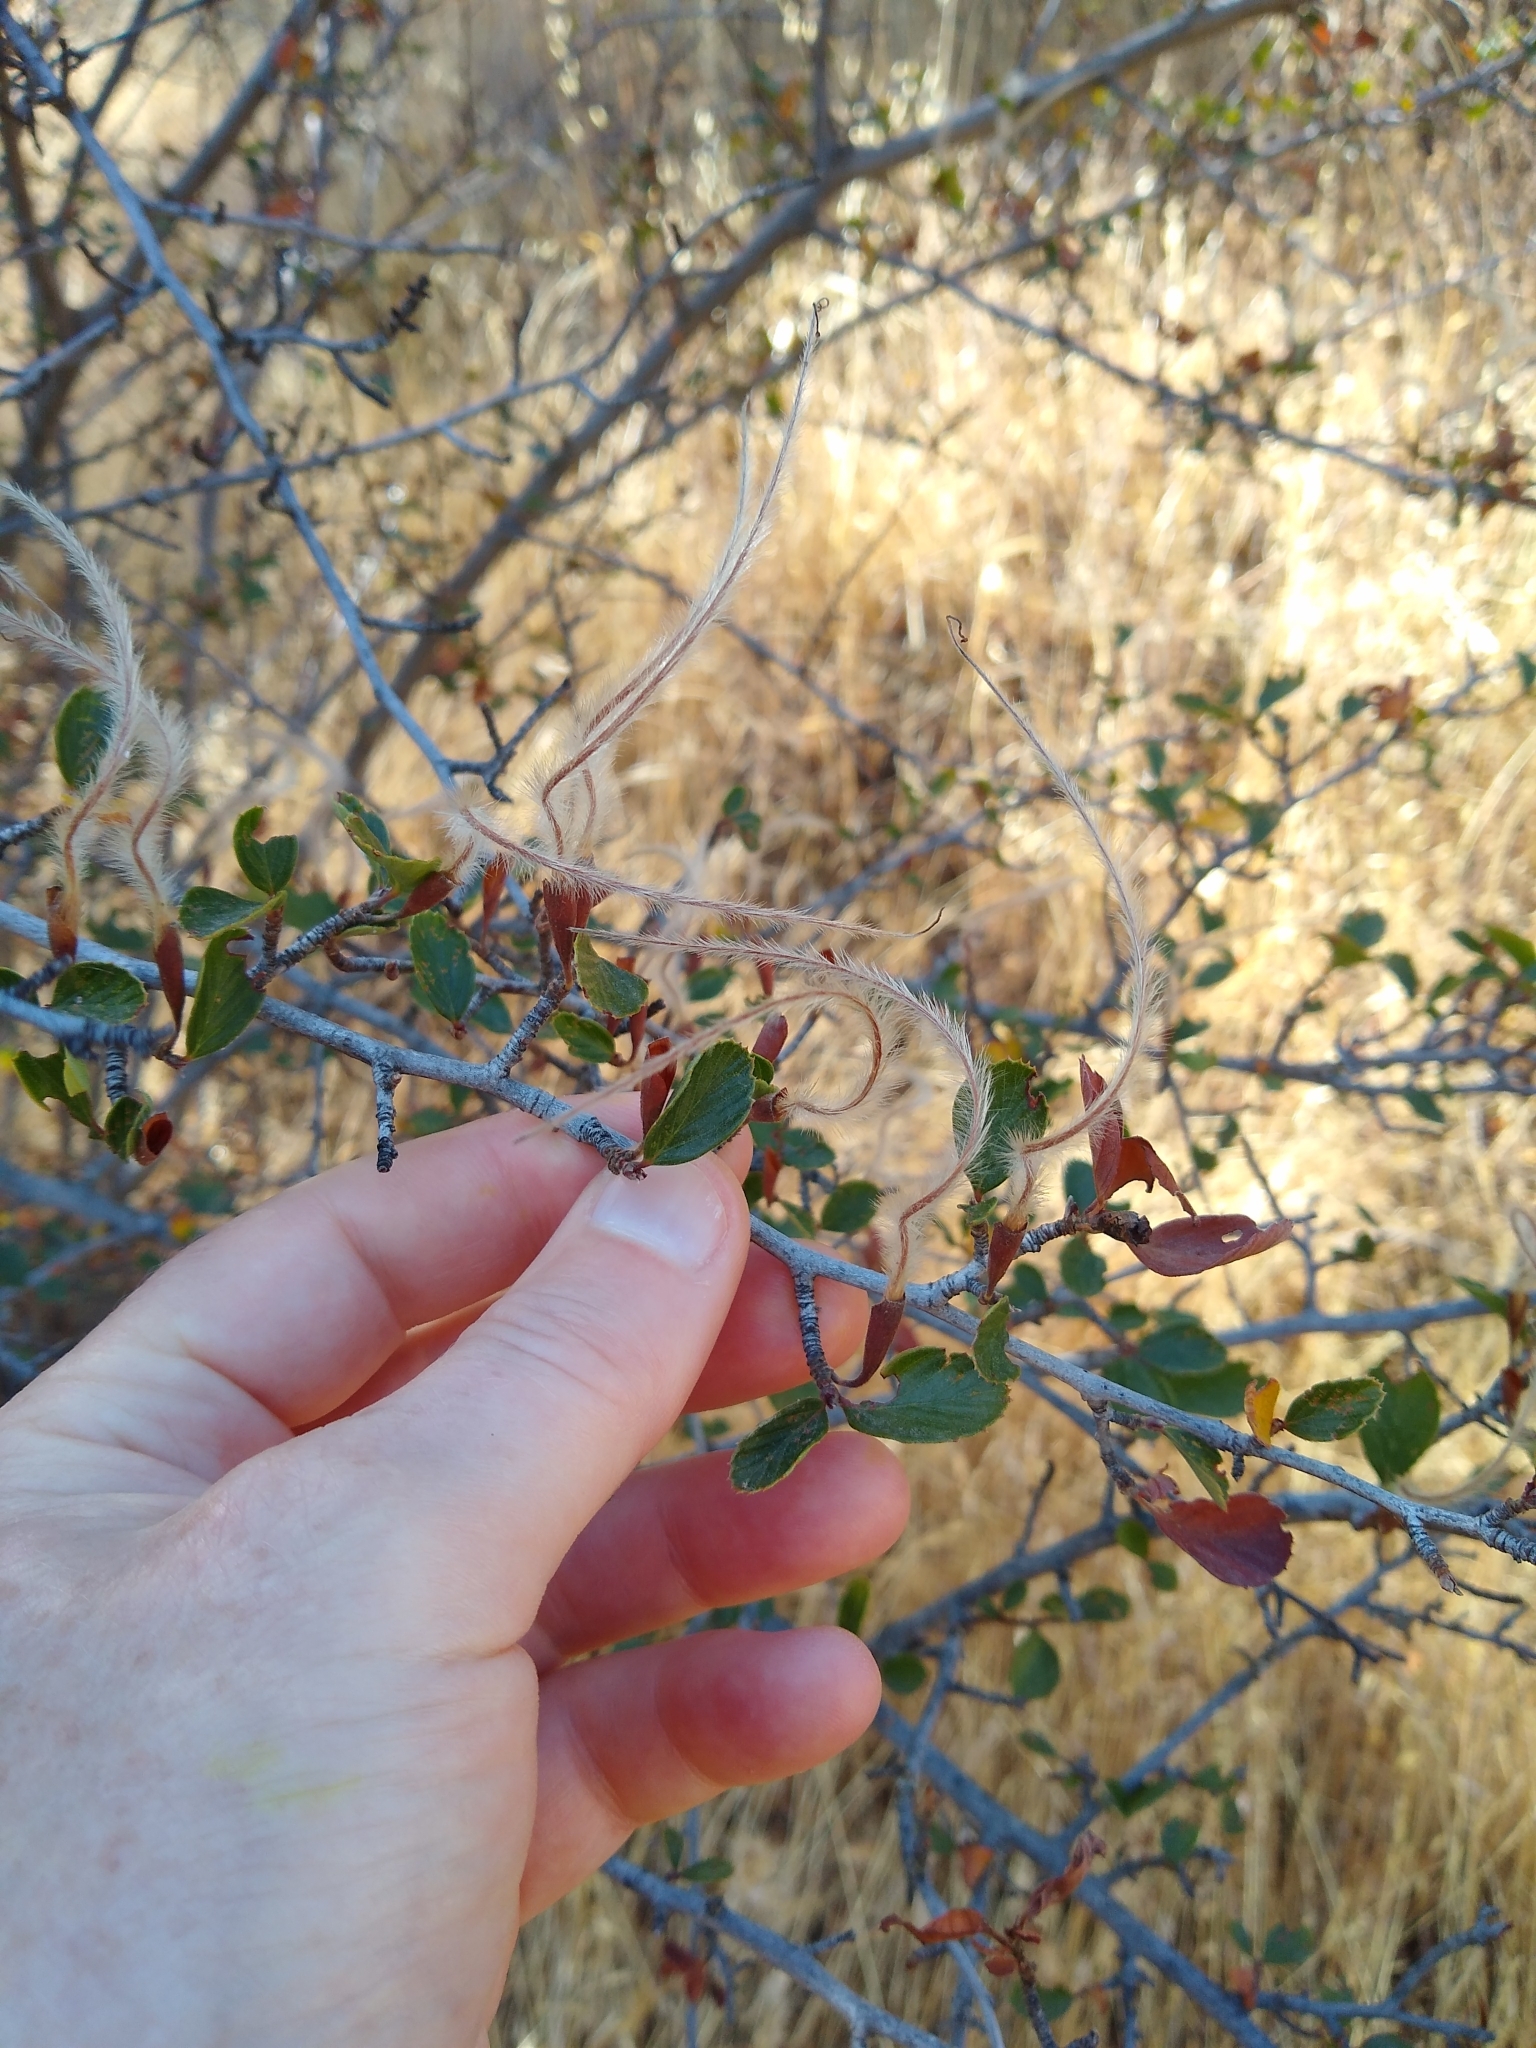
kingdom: Plantae
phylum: Tracheophyta
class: Magnoliopsida
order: Rosales
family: Rosaceae
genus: Cercocarpus
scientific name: Cercocarpus betuloides
